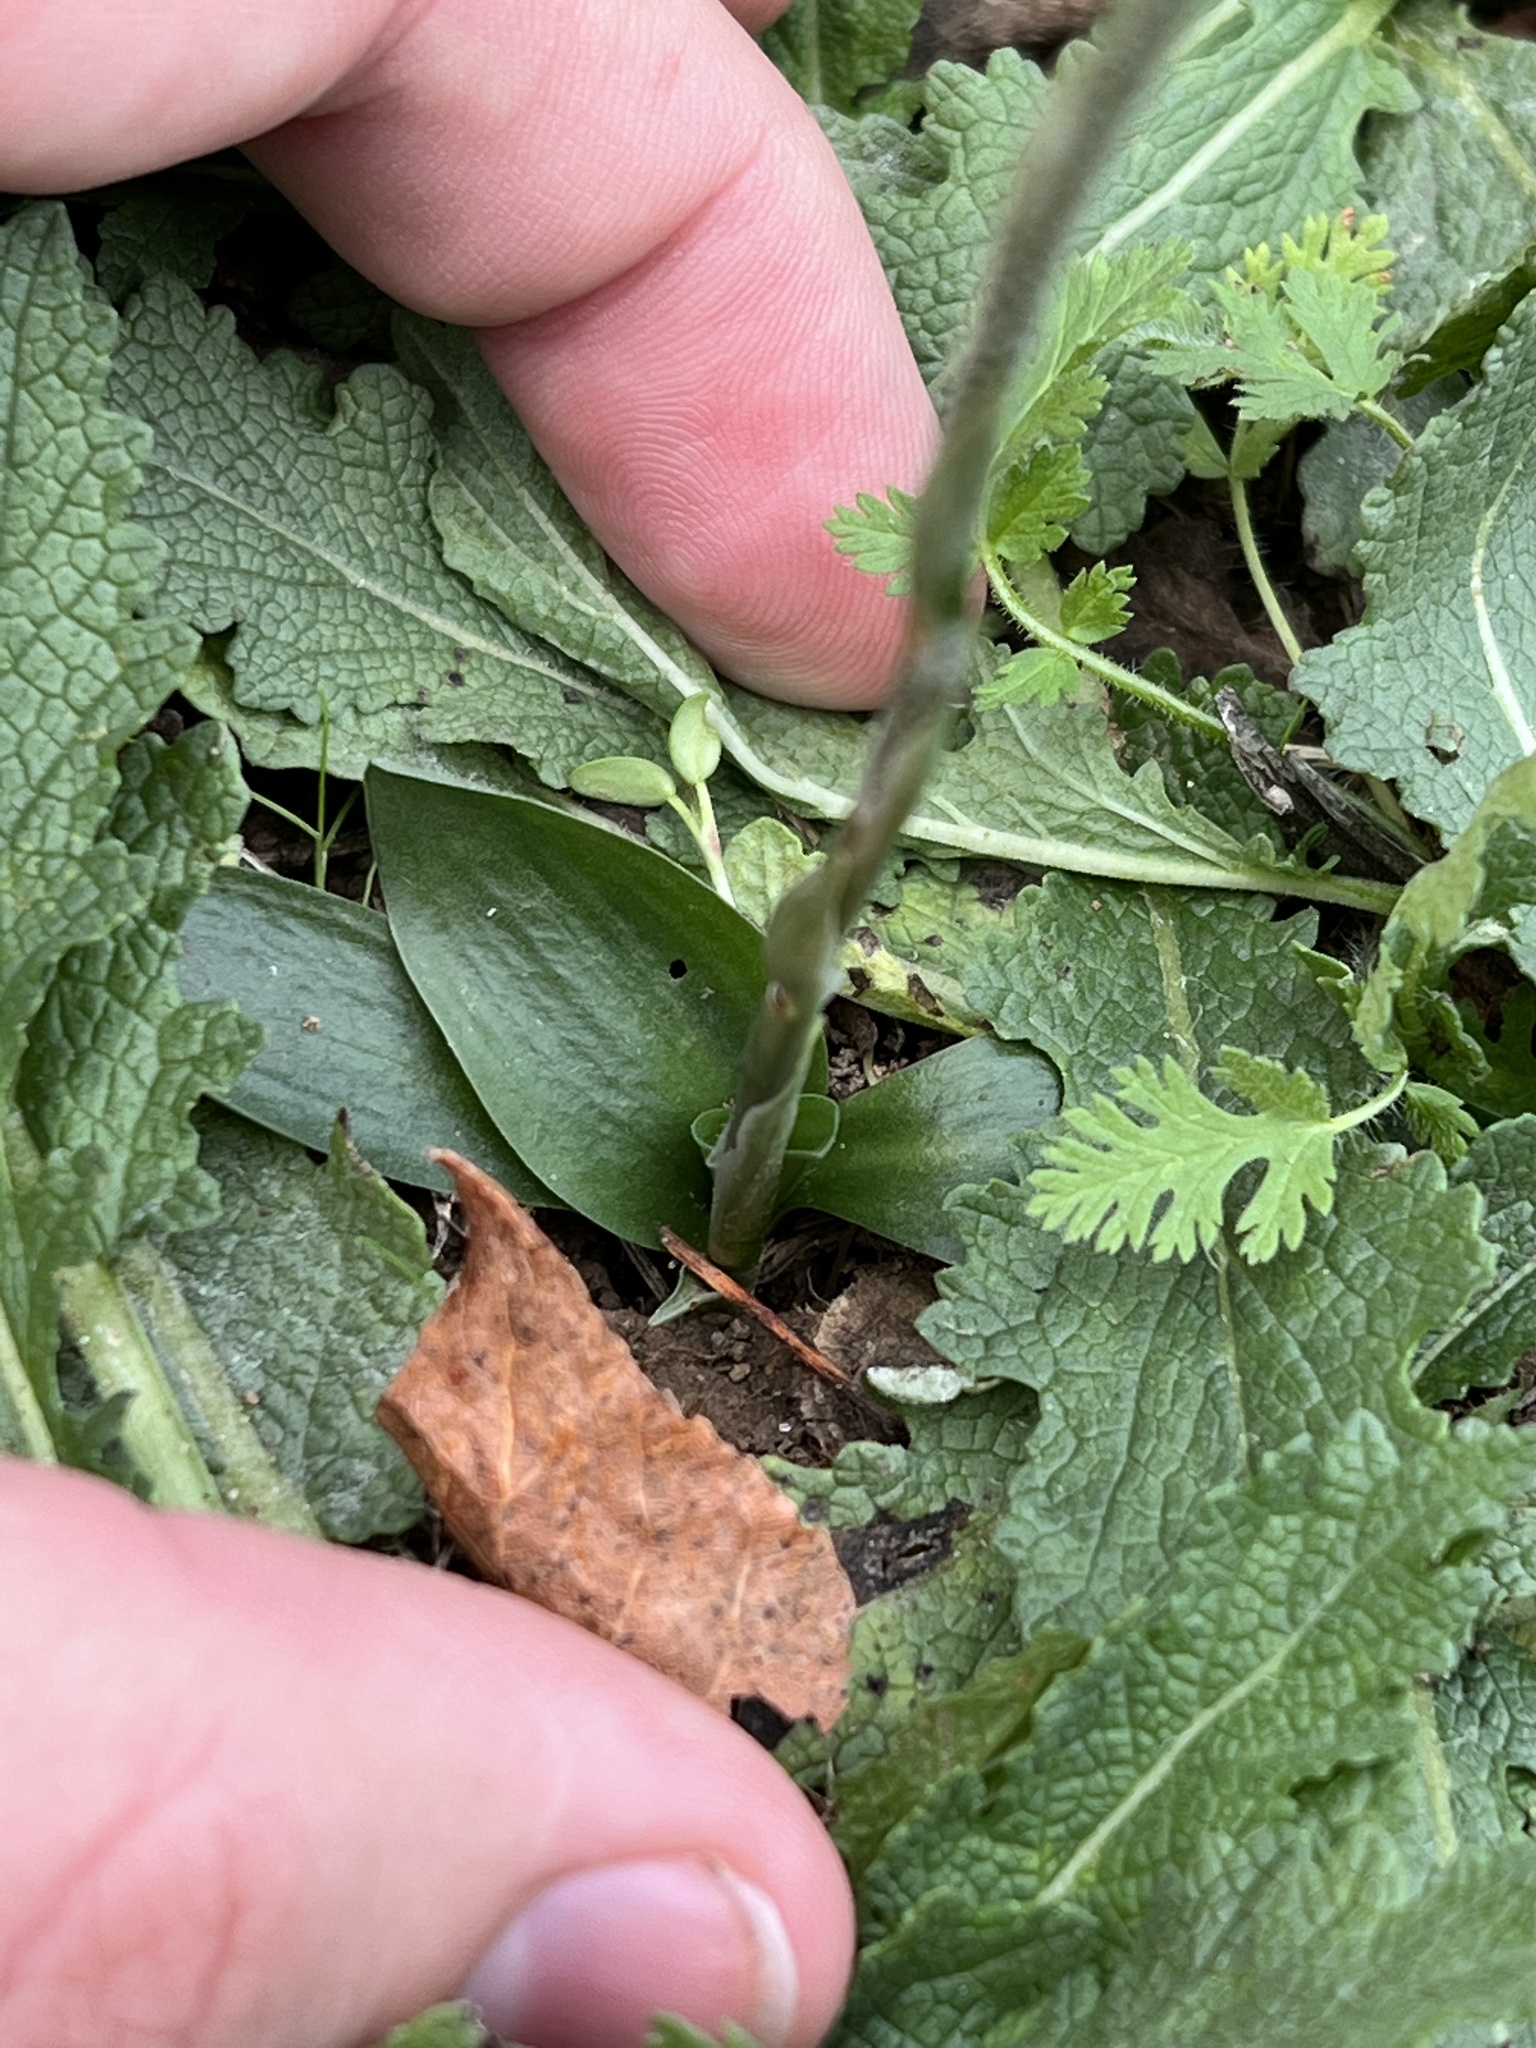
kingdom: Plantae
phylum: Tracheophyta
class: Liliopsida
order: Asparagales
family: Orchidaceae
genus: Spiranthes
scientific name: Spiranthes spiralis
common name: Autumn lady's-tresses
